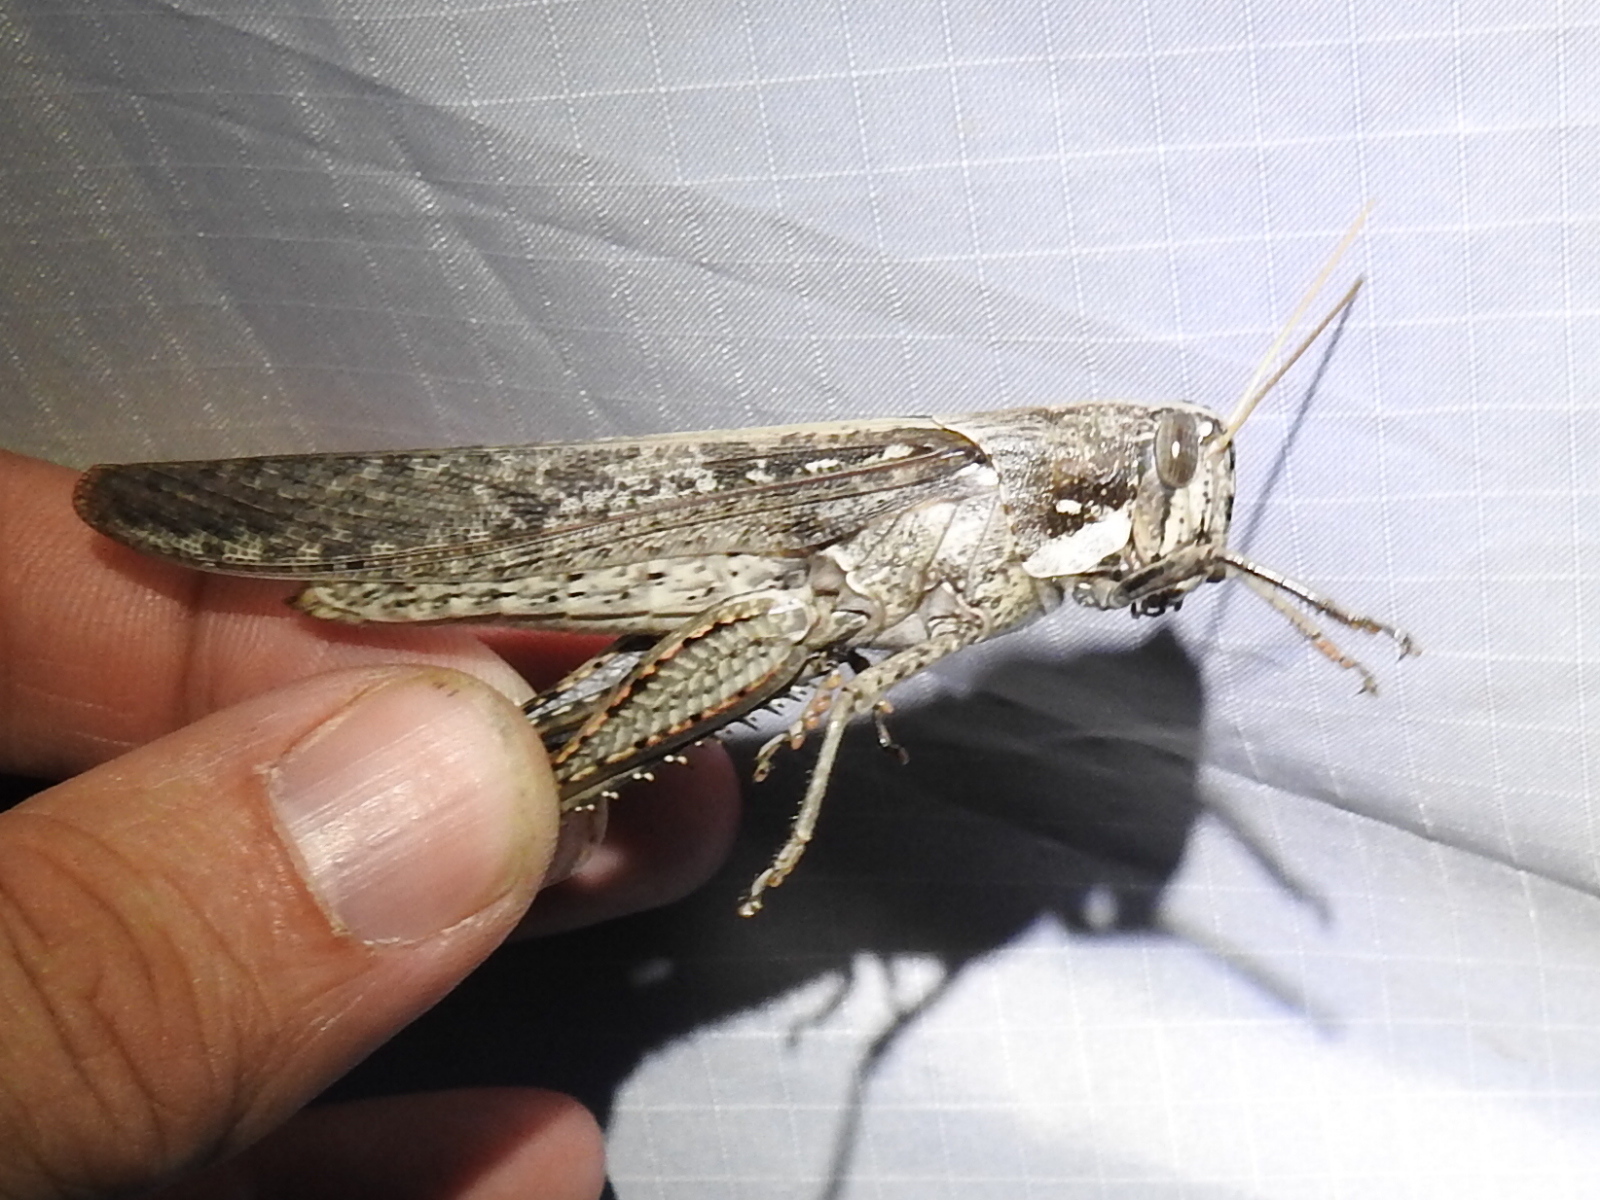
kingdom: Animalia
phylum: Arthropoda
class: Insecta
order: Orthoptera
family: Acrididae
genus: Schistocerca
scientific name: Schistocerca nitens
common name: Vagrant grasshopper
